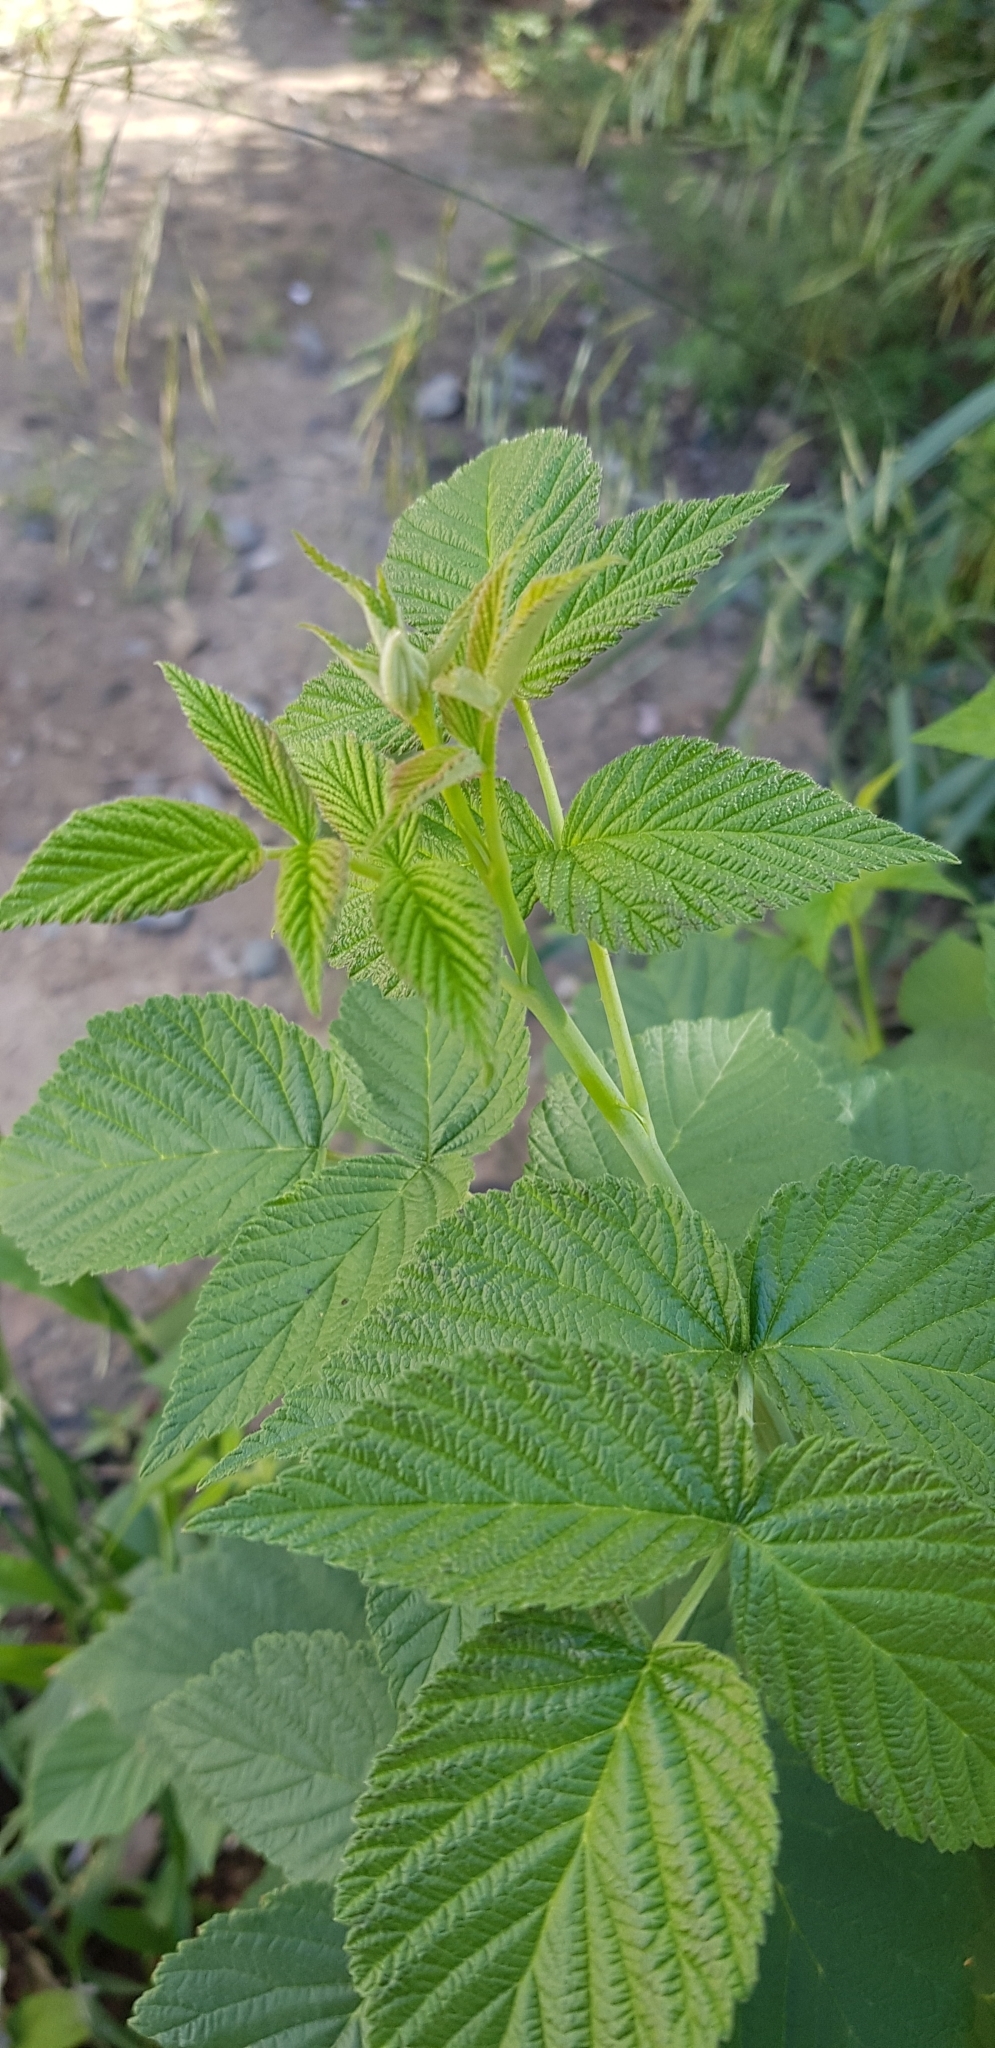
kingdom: Plantae
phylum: Tracheophyta
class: Magnoliopsida
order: Rosales
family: Rosaceae
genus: Rubus
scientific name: Rubus sachalinensis
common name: Red raspberry
